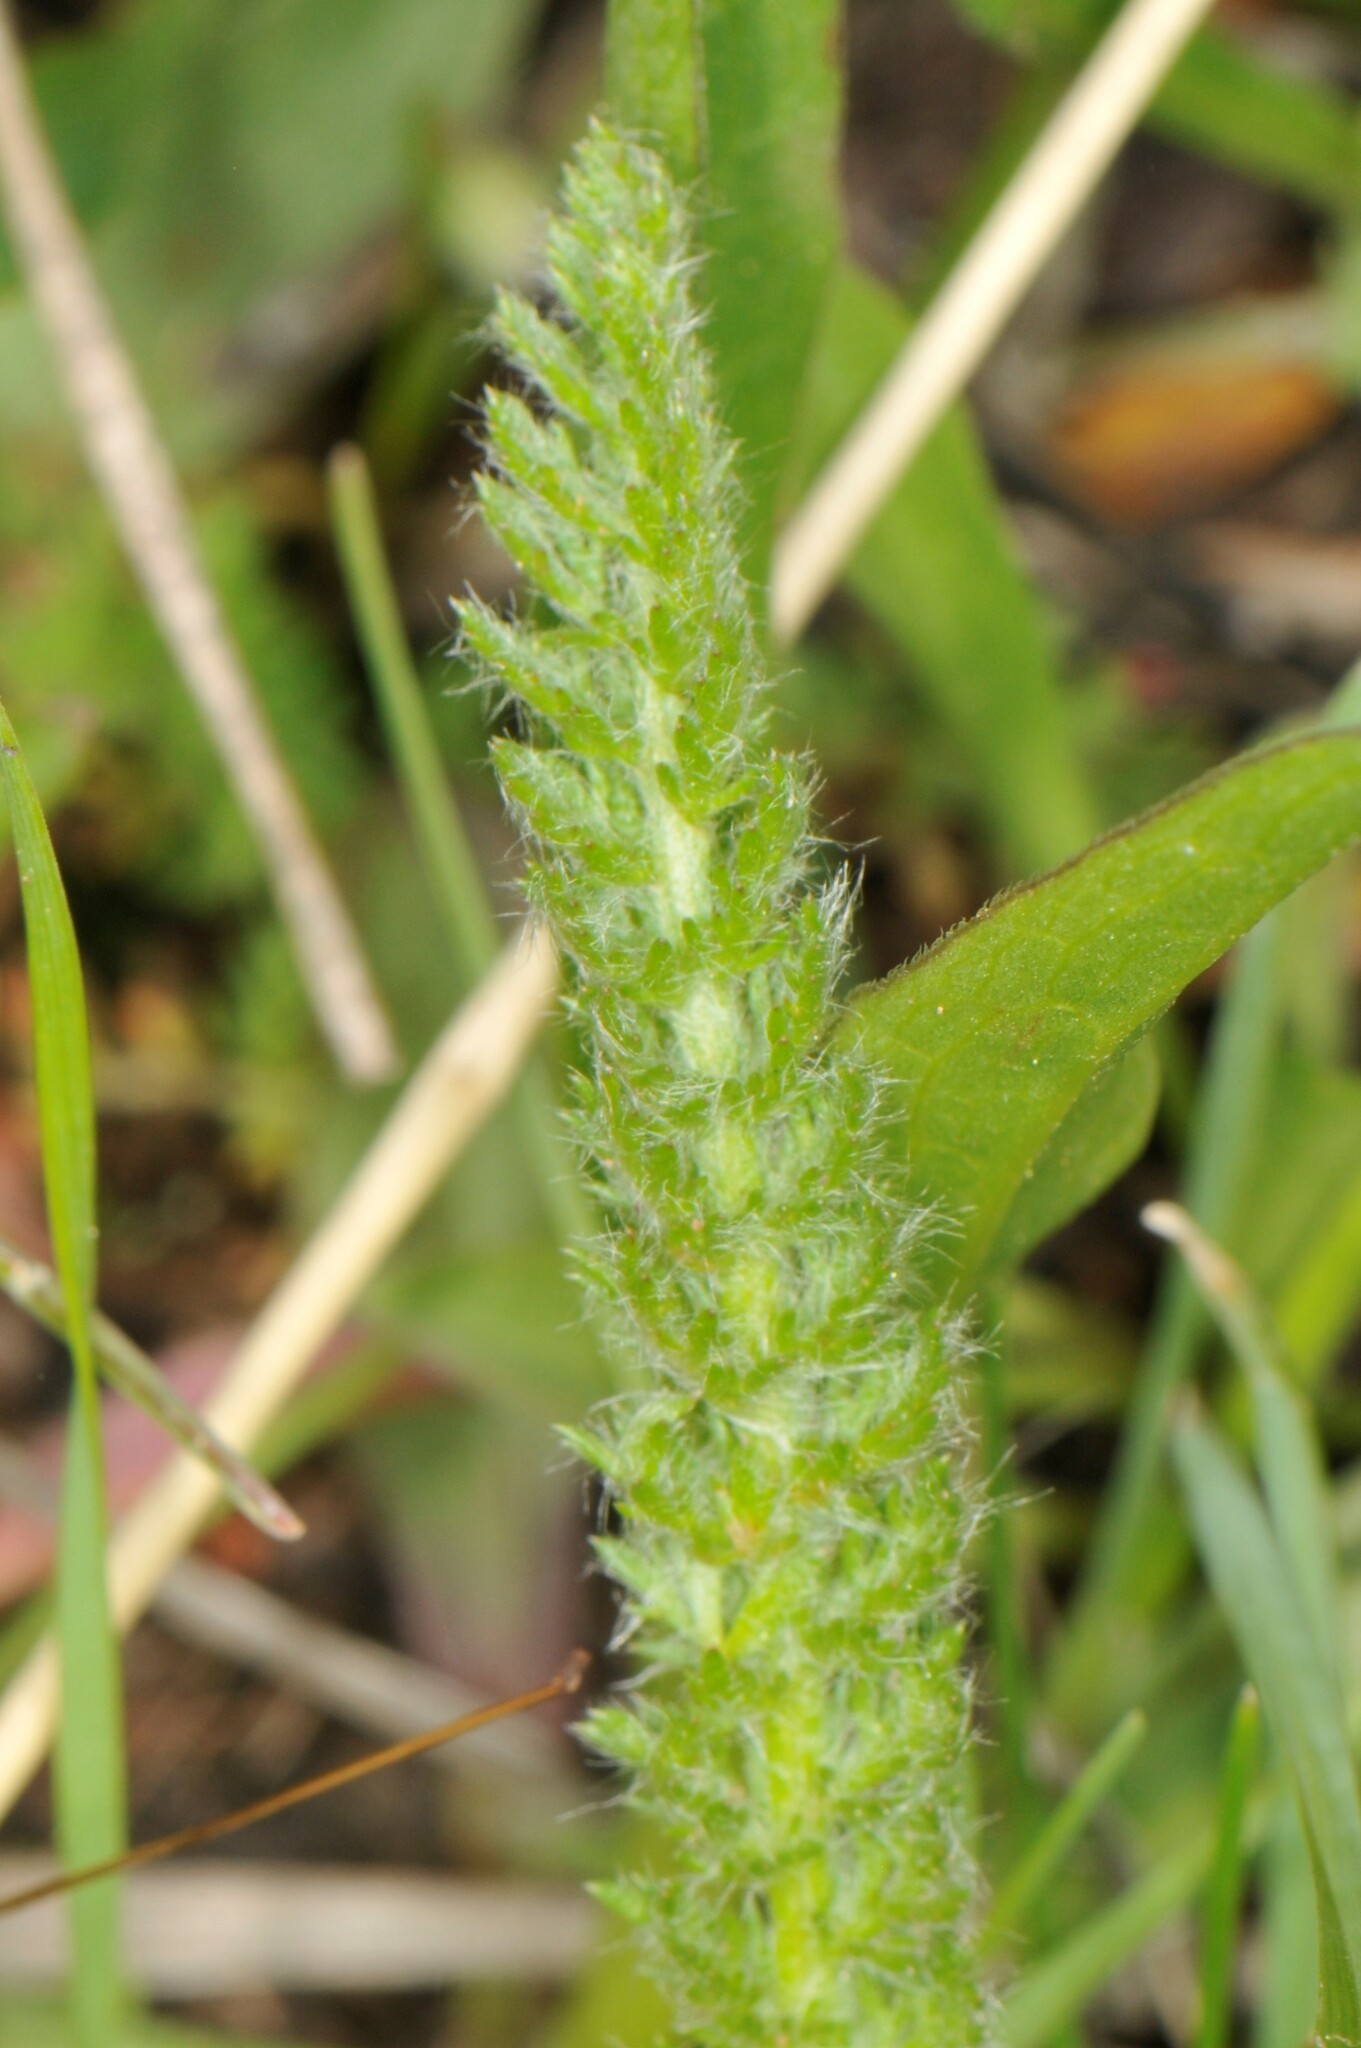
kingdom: Plantae
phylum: Tracheophyta
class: Magnoliopsida
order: Asterales
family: Asteraceae
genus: Achillea
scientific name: Achillea millefolium
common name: Yarrow
